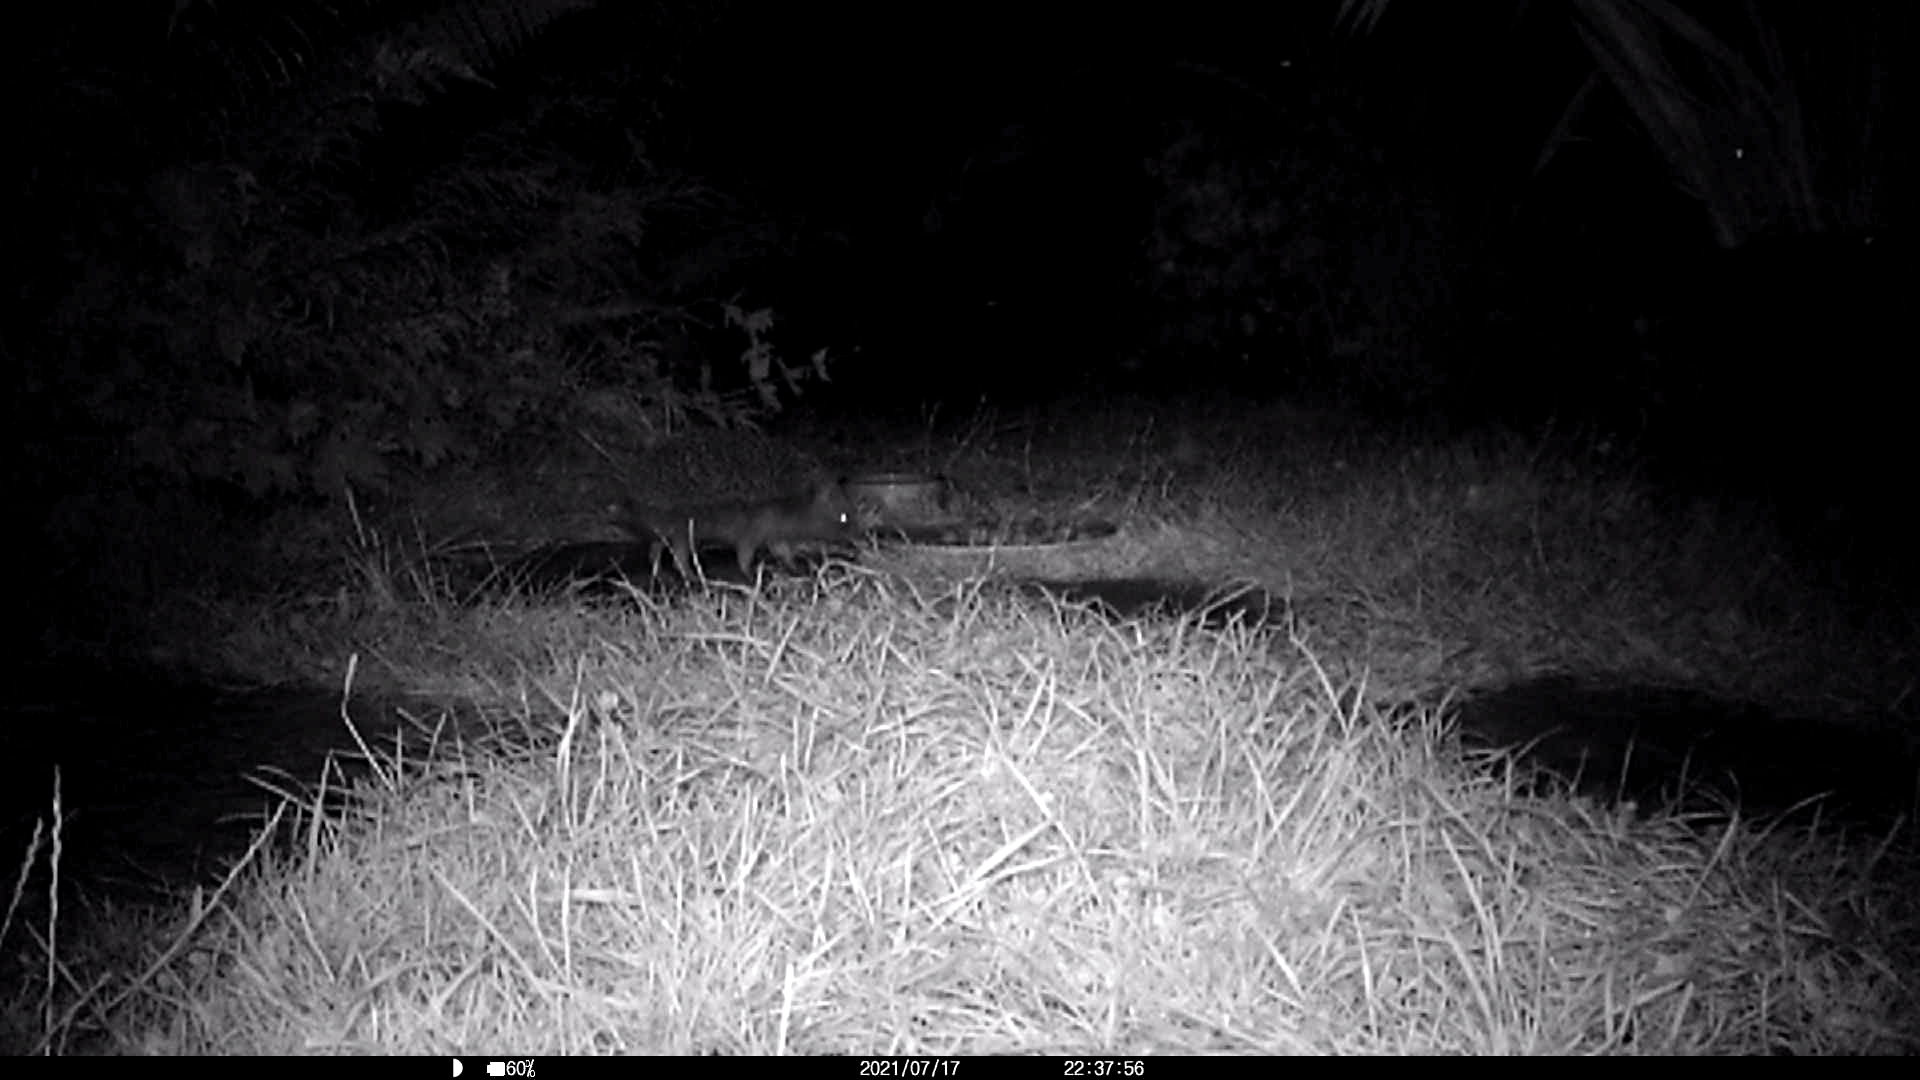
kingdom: Animalia
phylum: Chordata
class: Mammalia
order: Erinaceomorpha
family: Erinaceidae
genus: Erinaceus
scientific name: Erinaceus europaeus
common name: West european hedgehog
